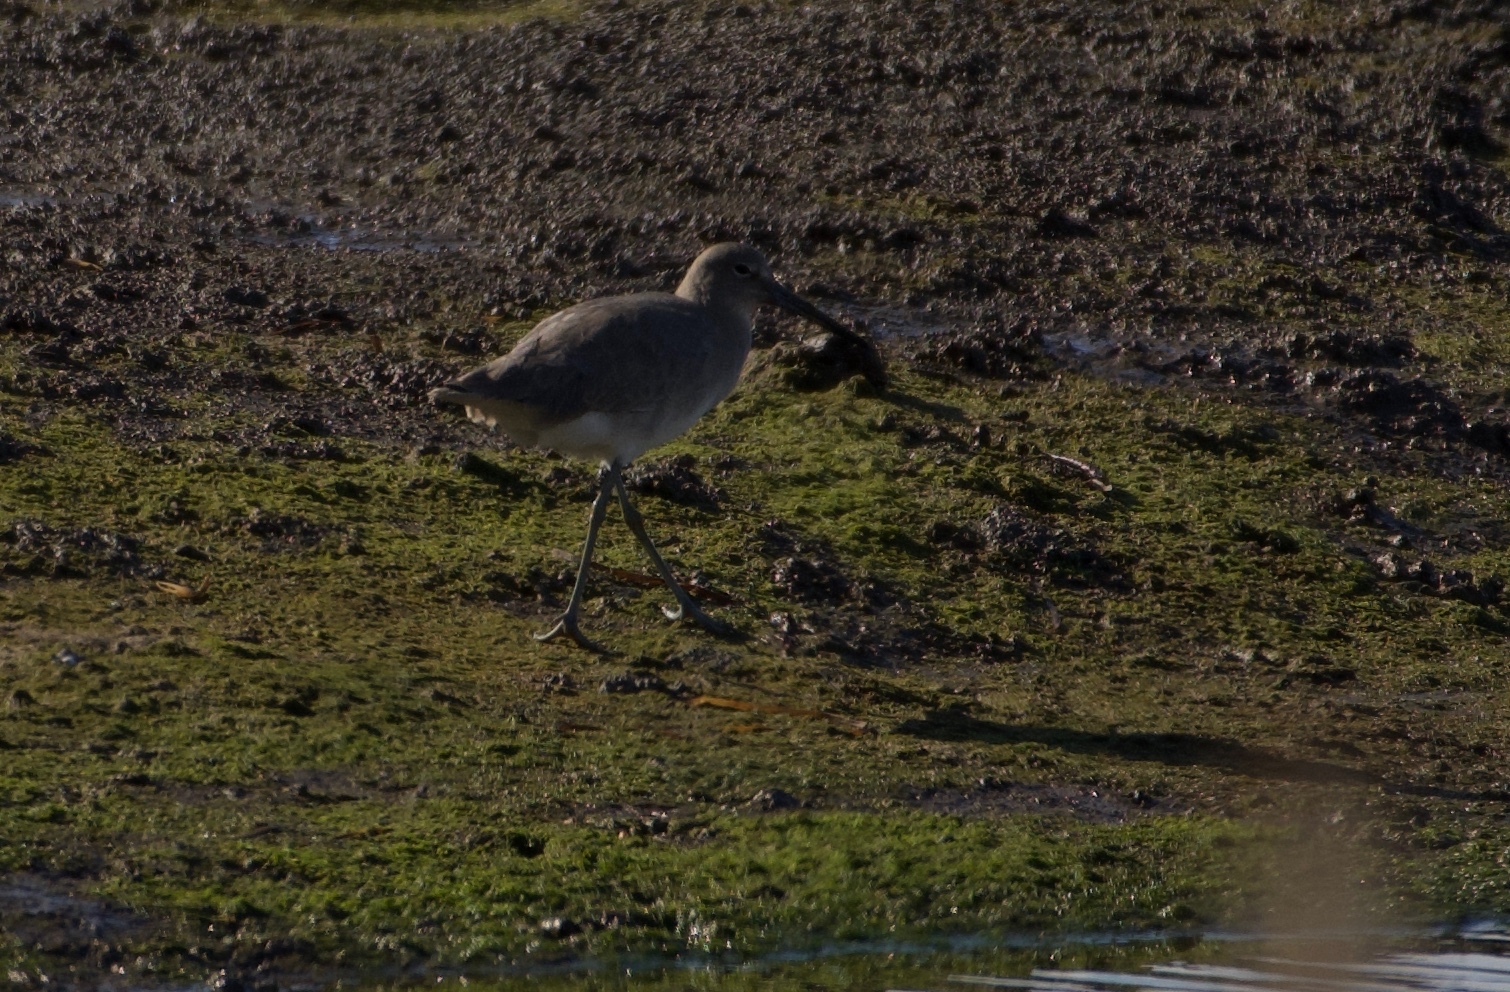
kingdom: Animalia
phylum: Chordata
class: Aves
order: Charadriiformes
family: Scolopacidae
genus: Tringa
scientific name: Tringa semipalmata
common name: Willet
